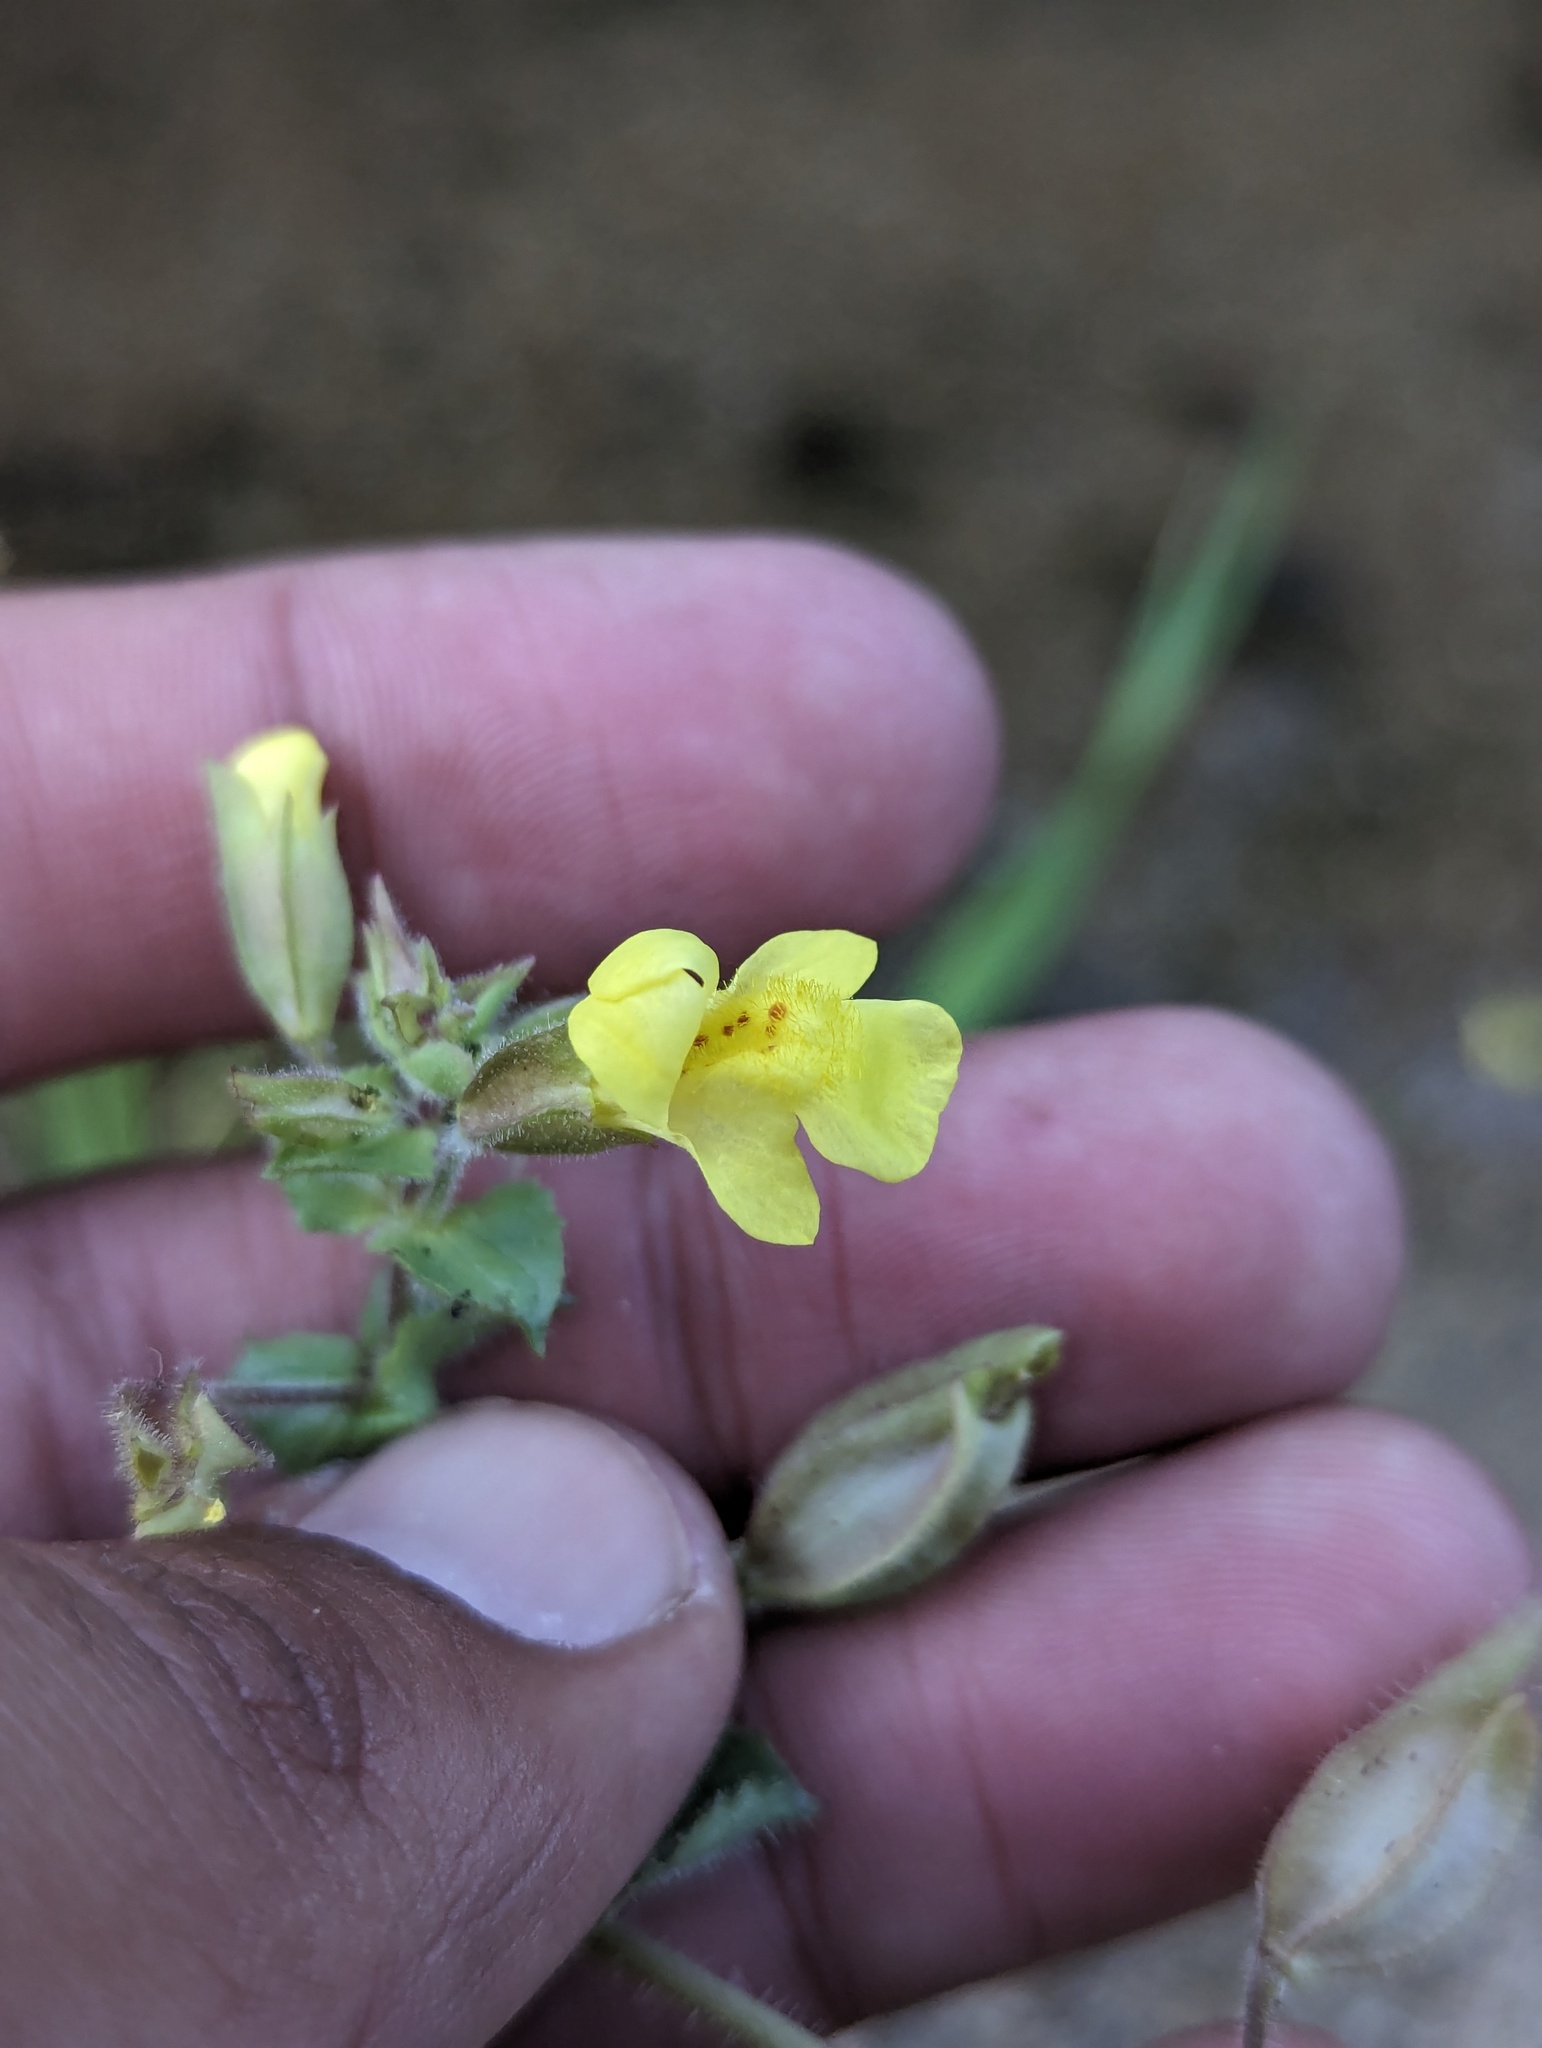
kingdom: Plantae
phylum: Tracheophyta
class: Magnoliopsida
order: Lamiales
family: Phrymaceae
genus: Erythranthe
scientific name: Erythranthe lagunensis
